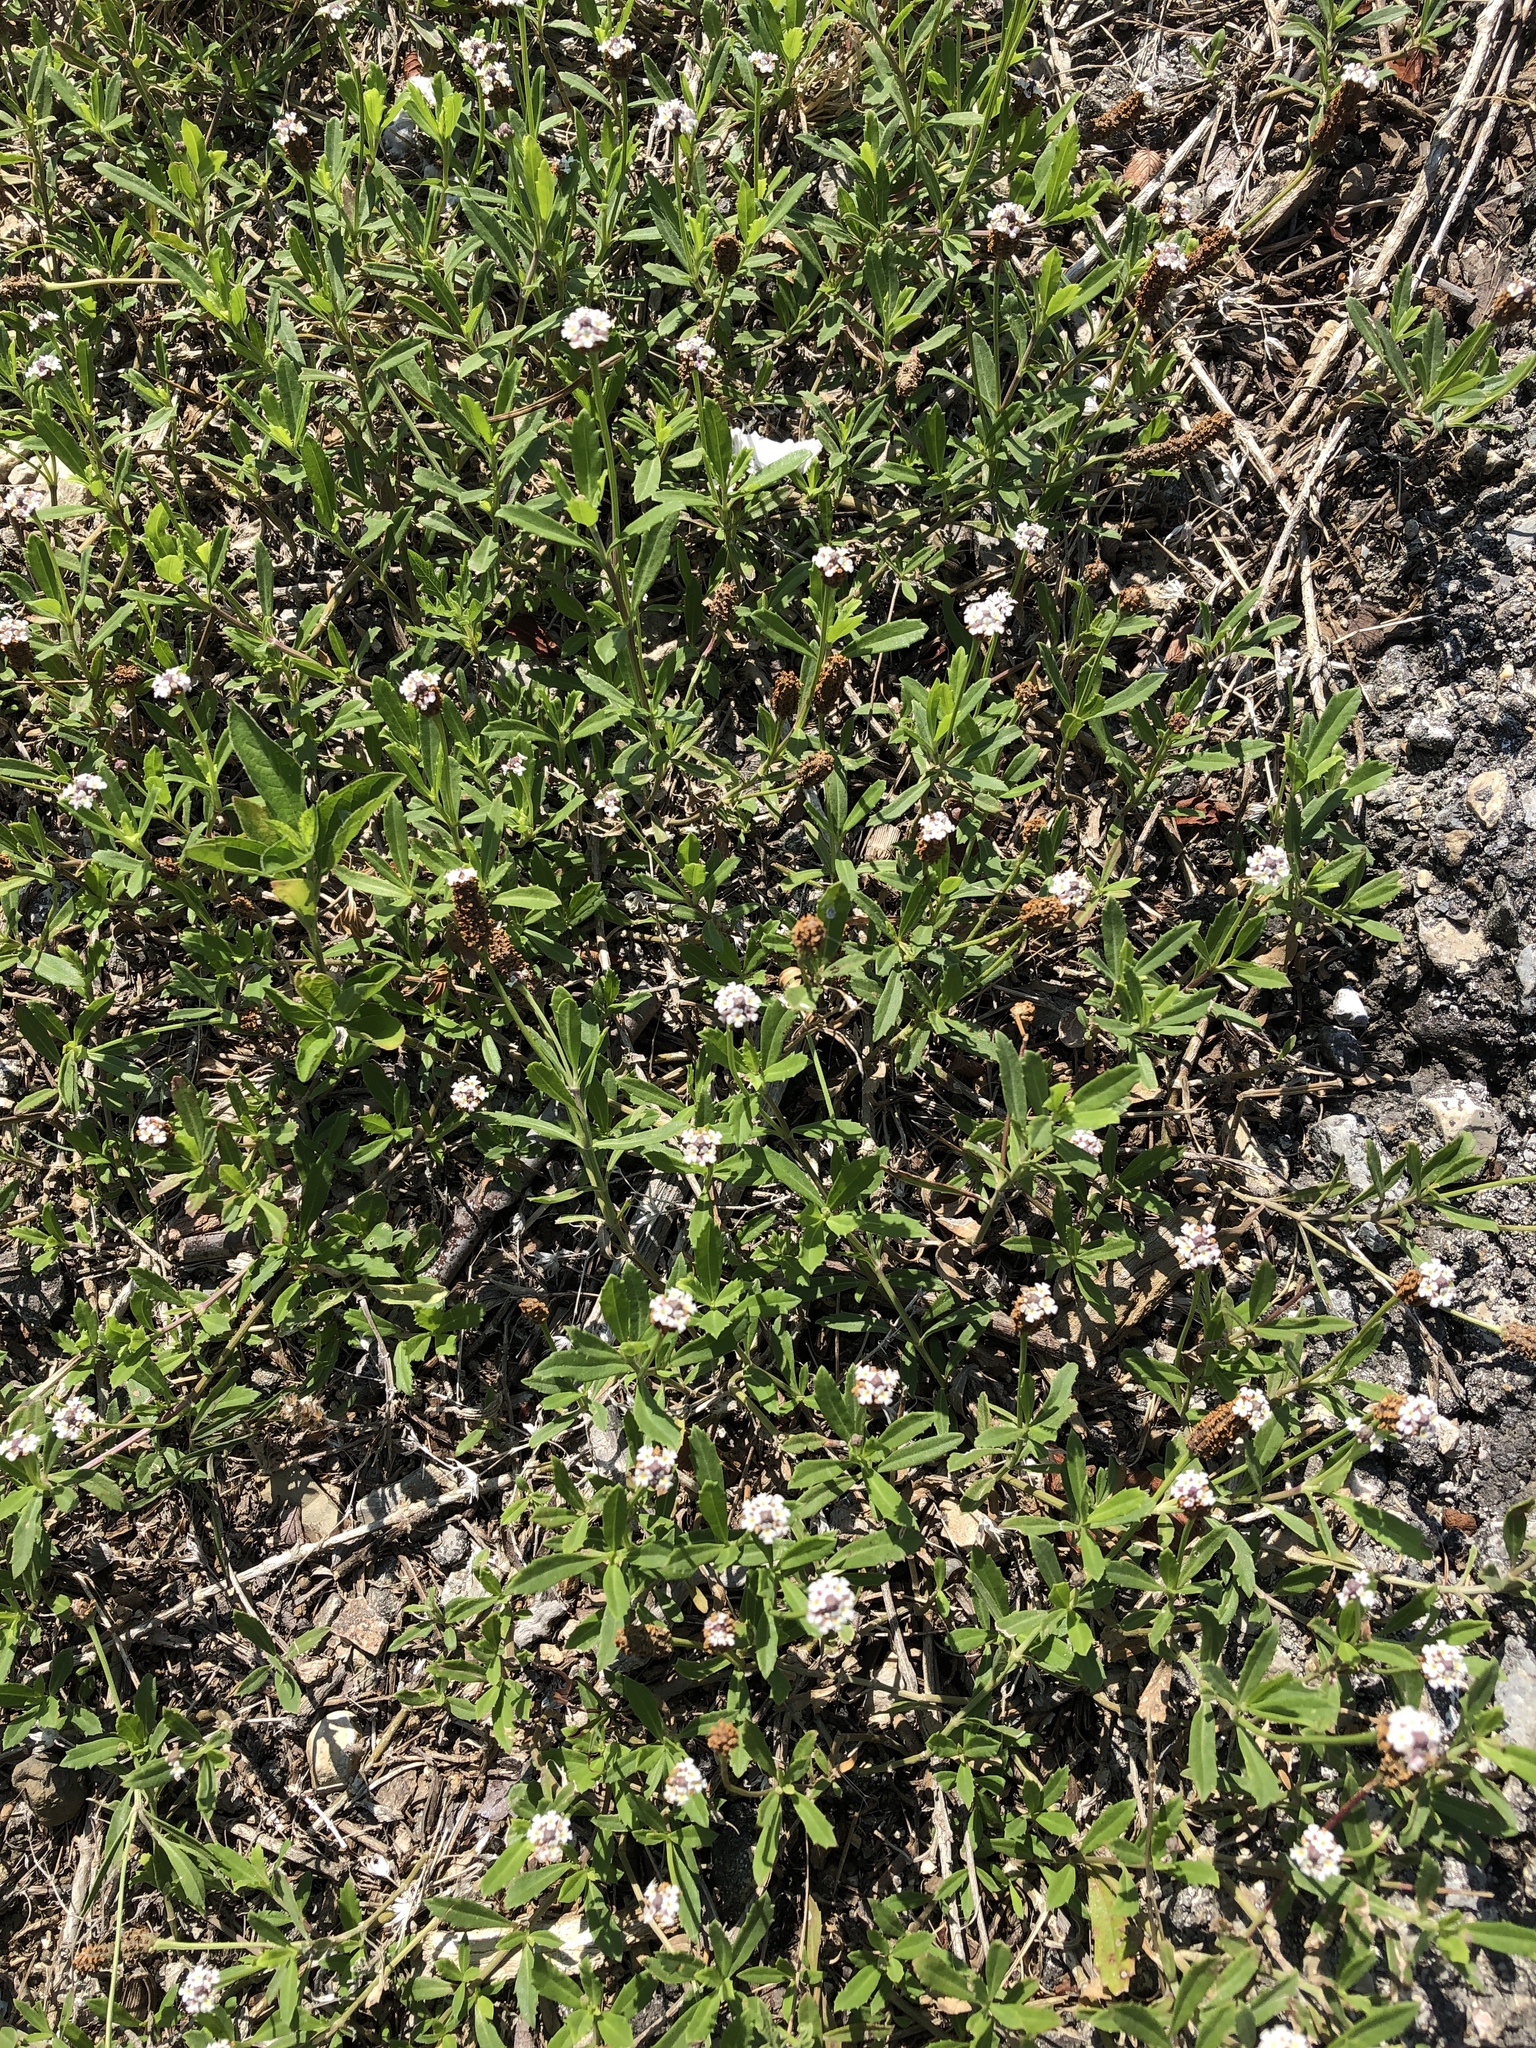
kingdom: Plantae
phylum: Tracheophyta
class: Magnoliopsida
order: Lamiales
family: Verbenaceae
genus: Phyla
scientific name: Phyla nodiflora
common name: Frogfruit
